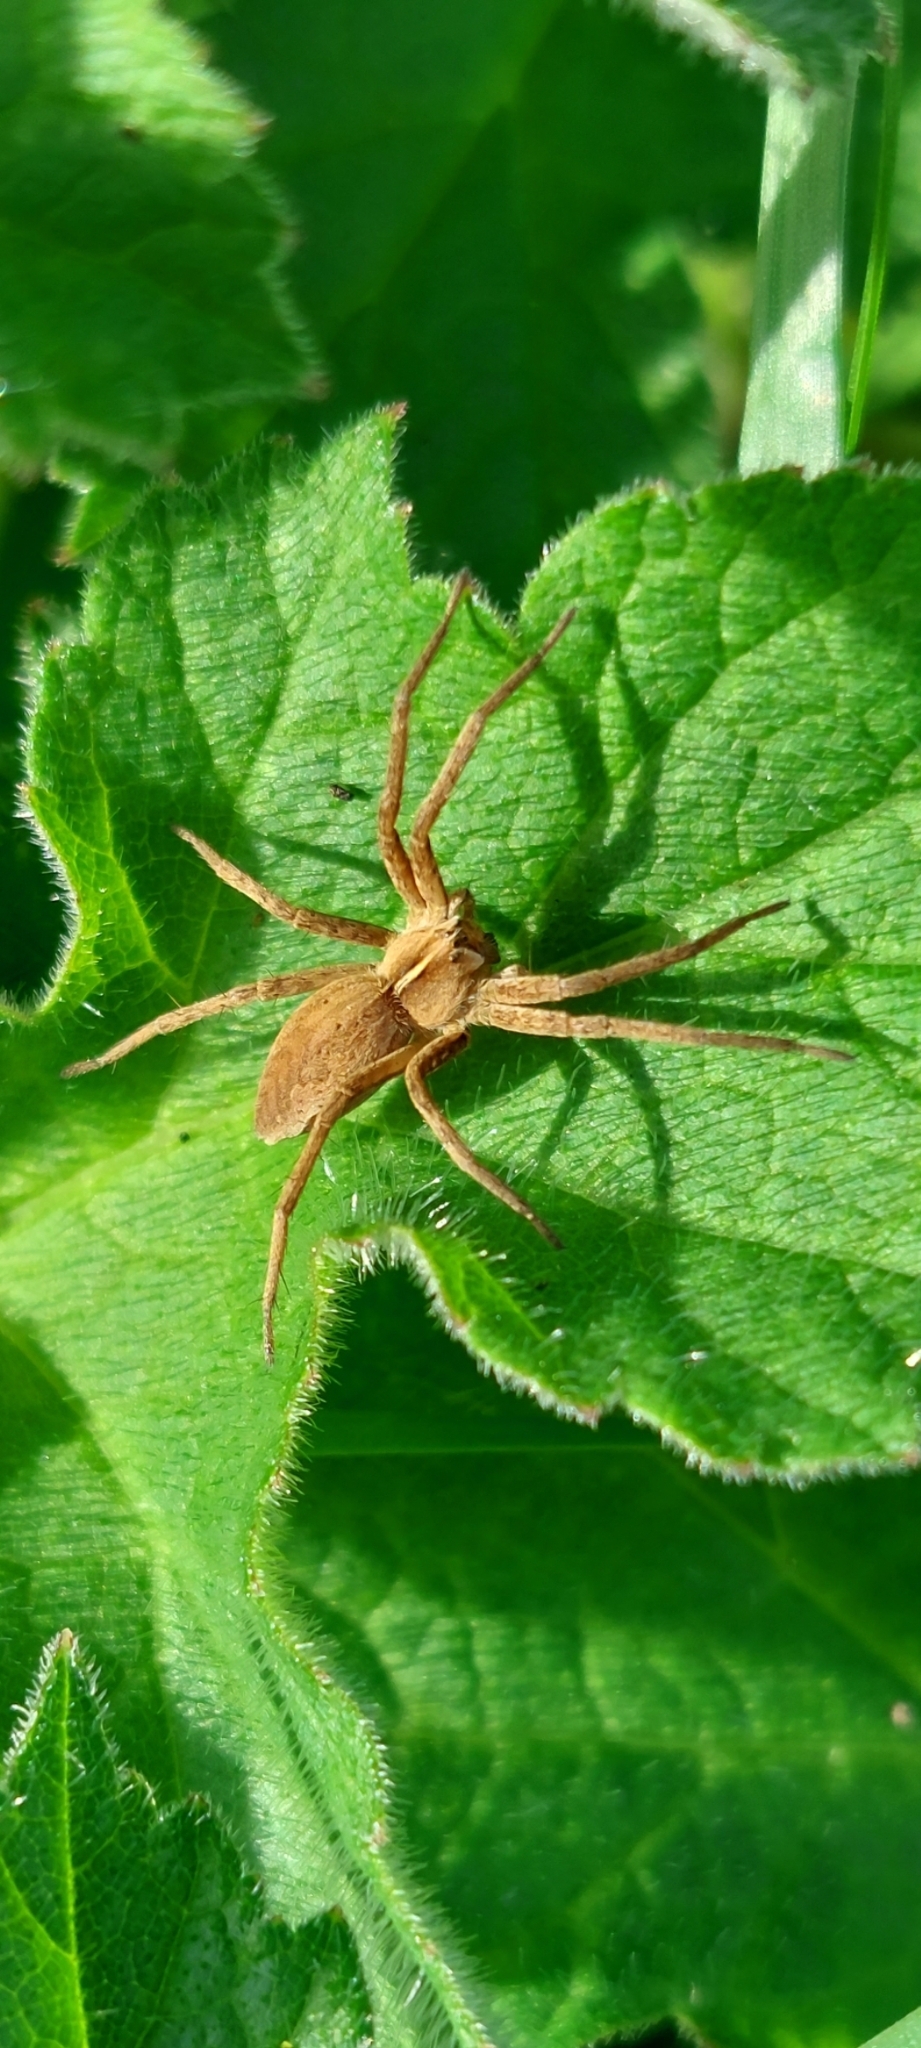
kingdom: Animalia
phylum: Arthropoda
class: Arachnida
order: Araneae
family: Pisauridae
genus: Pisaura
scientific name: Pisaura mirabilis
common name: Tent spider
